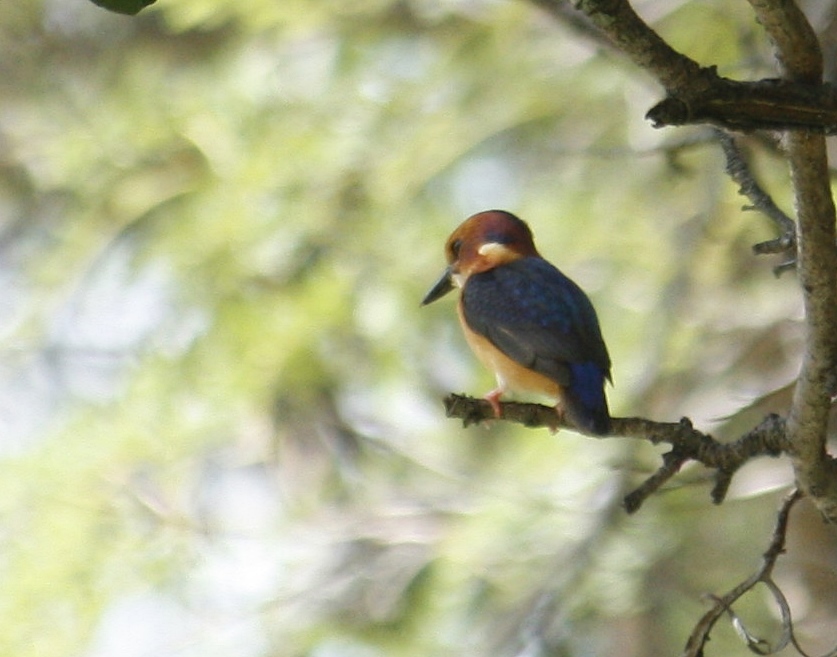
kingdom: Animalia
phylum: Chordata
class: Aves
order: Coraciiformes
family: Alcedinidae
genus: Ispidina
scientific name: Ispidina picta
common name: African pygmy-kingfisher
